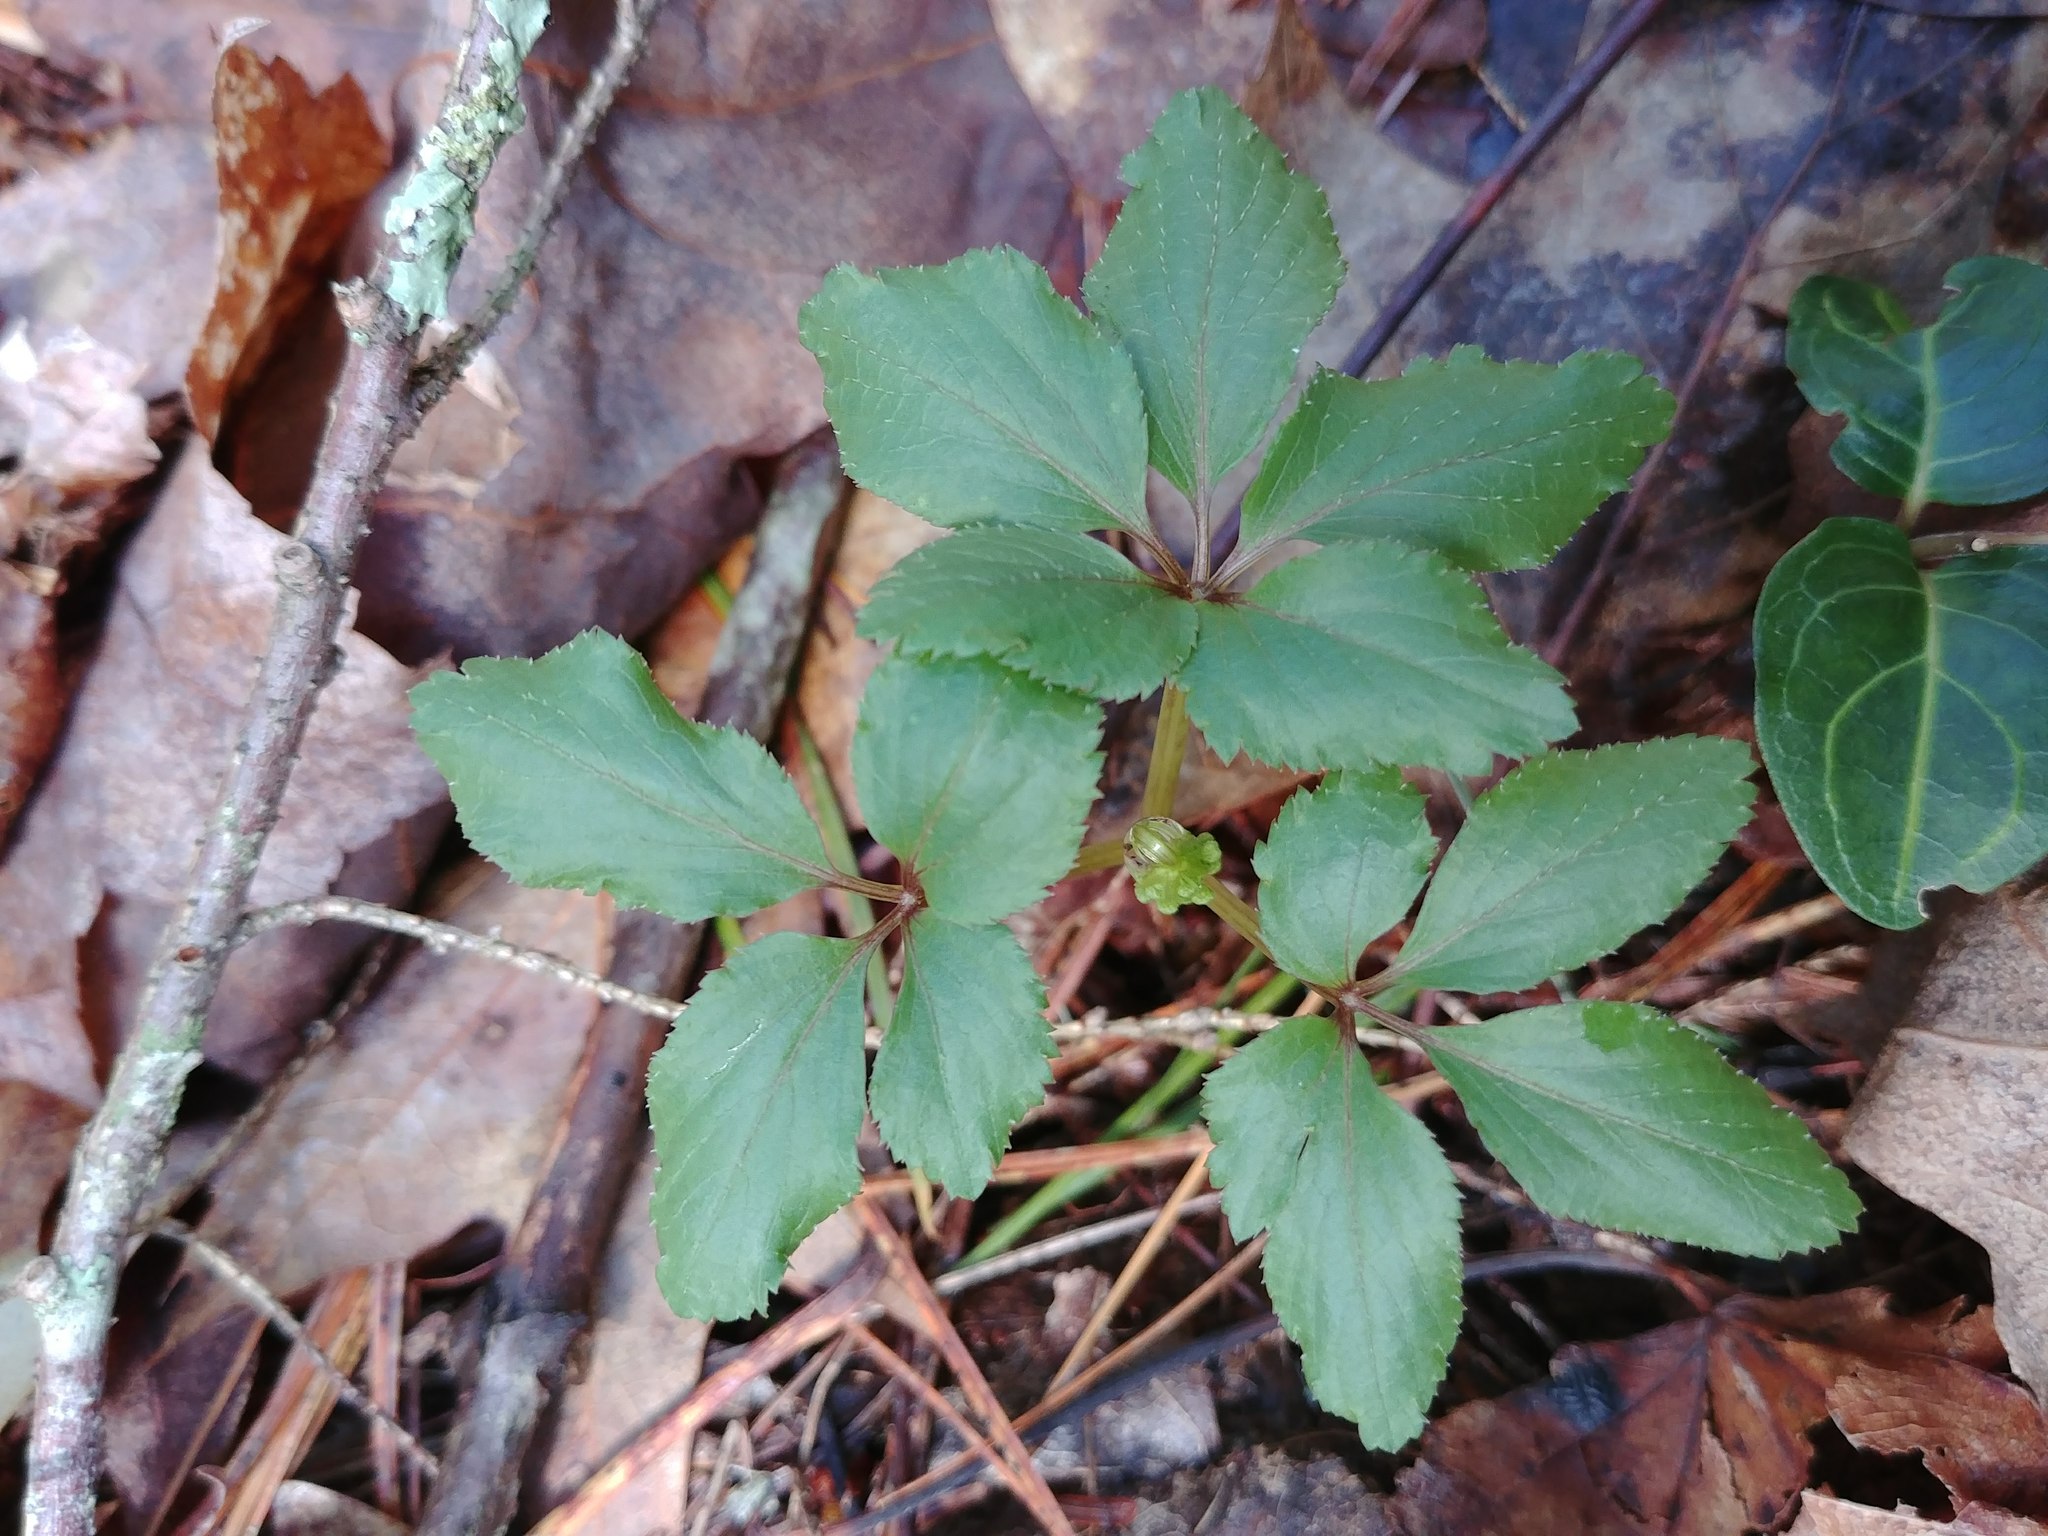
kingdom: Plantae
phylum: Tracheophyta
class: Magnoliopsida
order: Apiales
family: Araliaceae
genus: Panax
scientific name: Panax trifolius
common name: Dwarf ginseng
